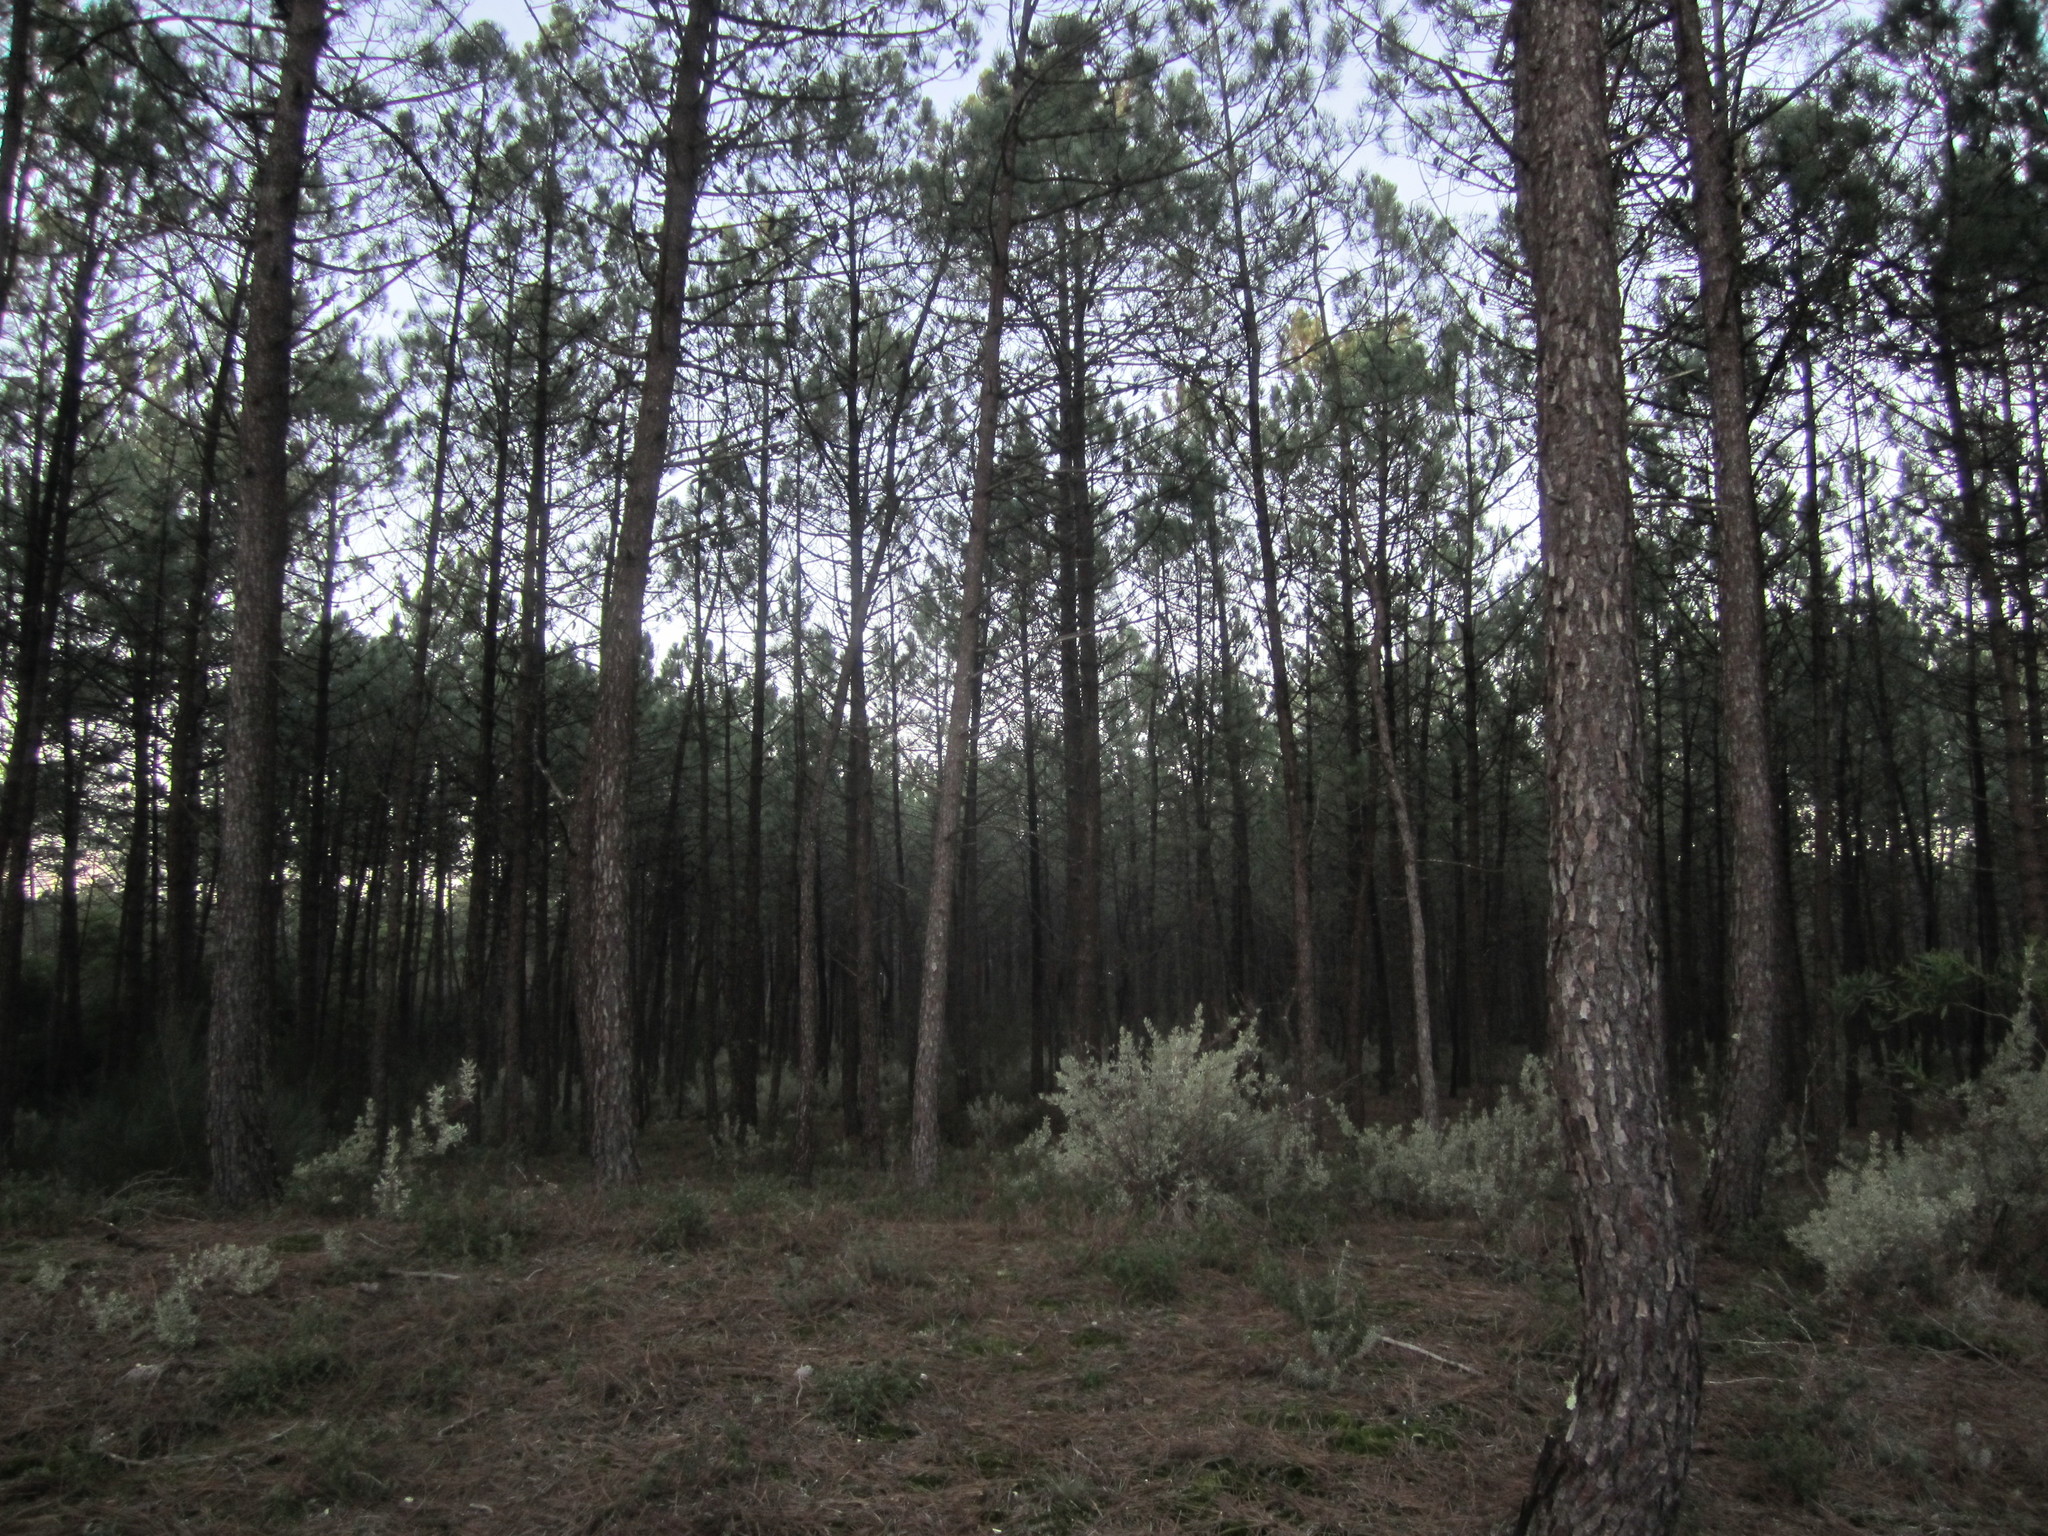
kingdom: Plantae
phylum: Tracheophyta
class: Pinopsida
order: Pinales
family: Pinaceae
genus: Pinus
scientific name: Pinus pinaster
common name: Maritime pine
